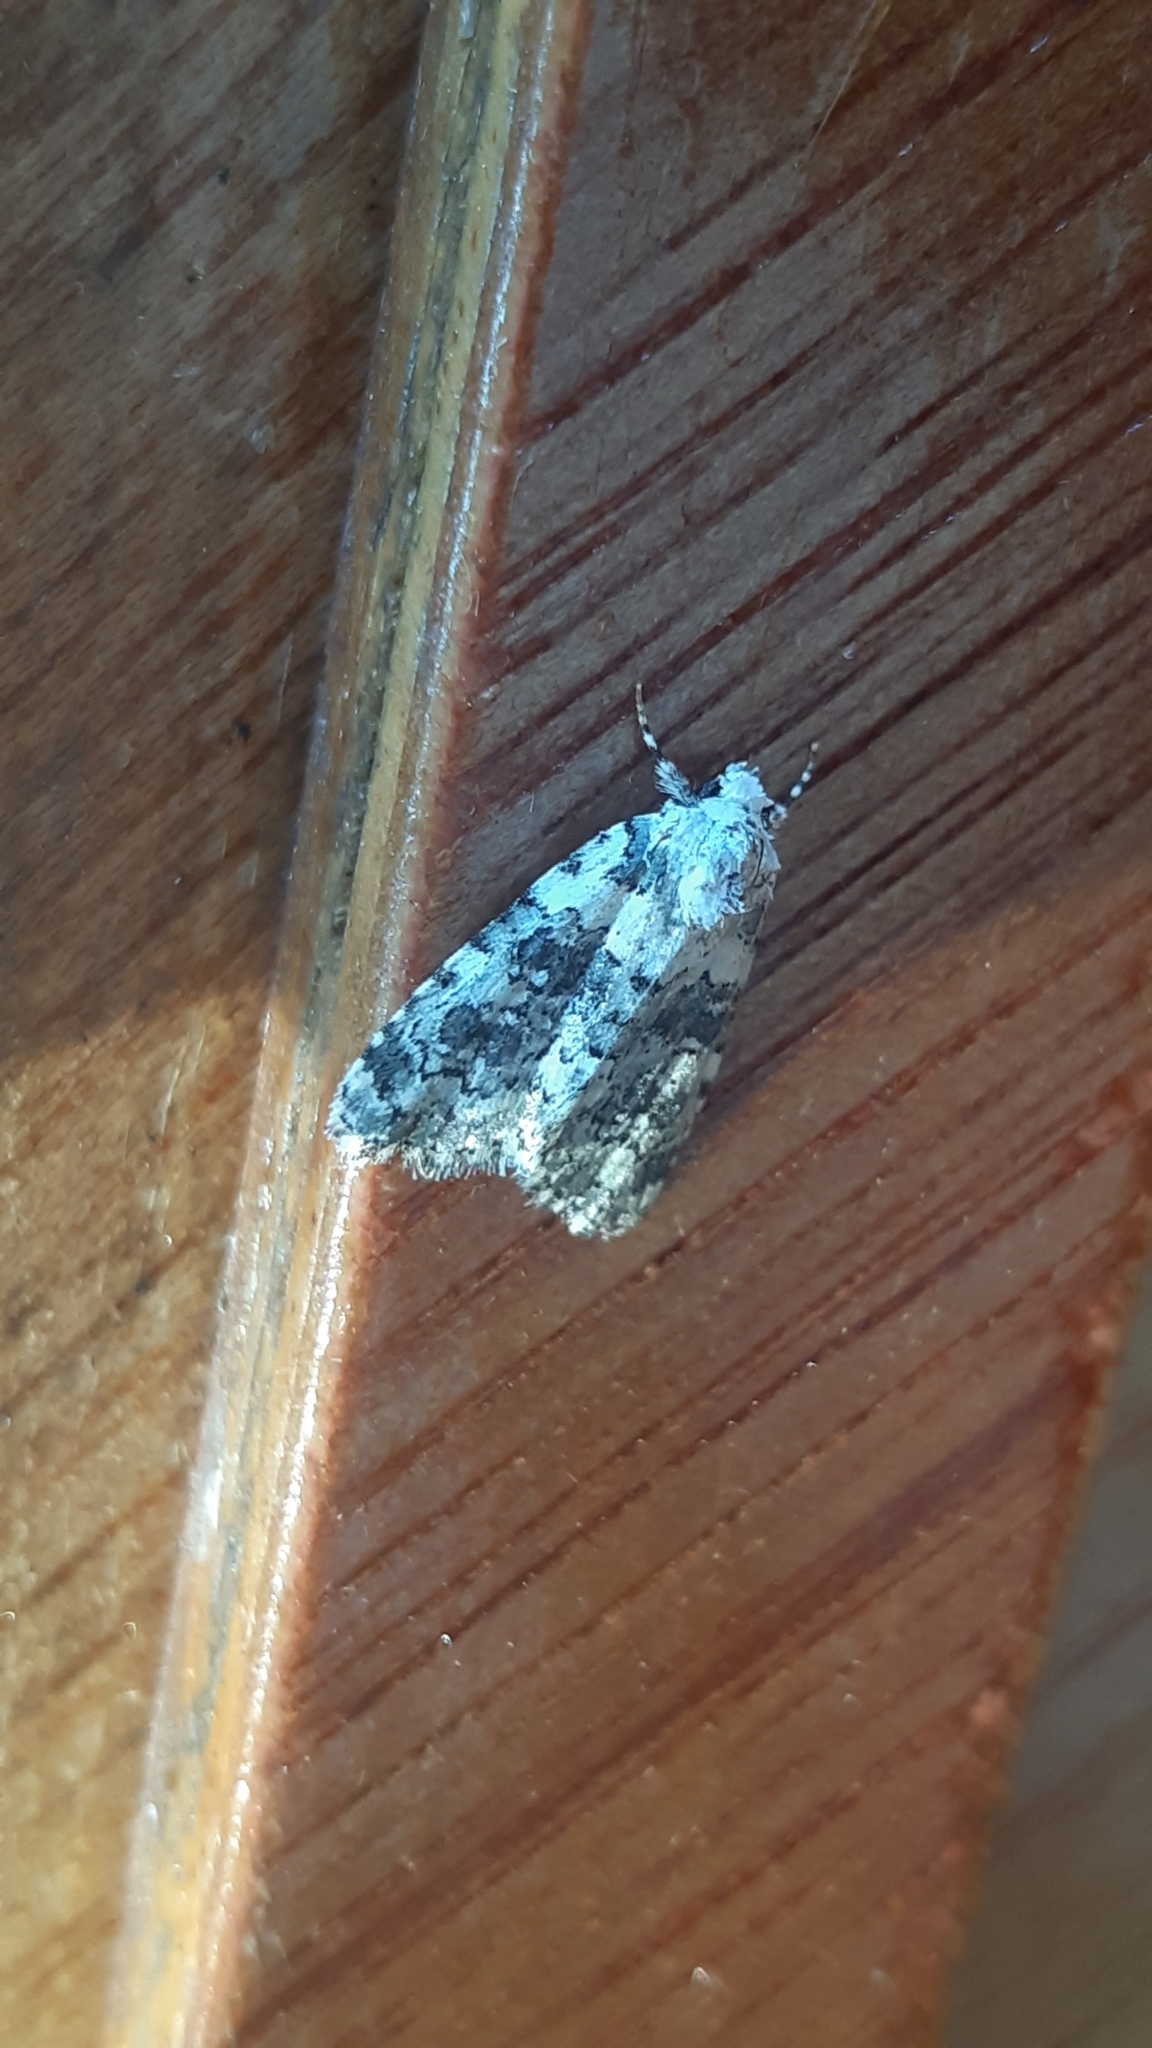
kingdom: Animalia
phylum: Arthropoda
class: Insecta
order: Lepidoptera
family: Noctuidae
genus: Bryophila
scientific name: Bryophila domestica
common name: Marbled beauty
